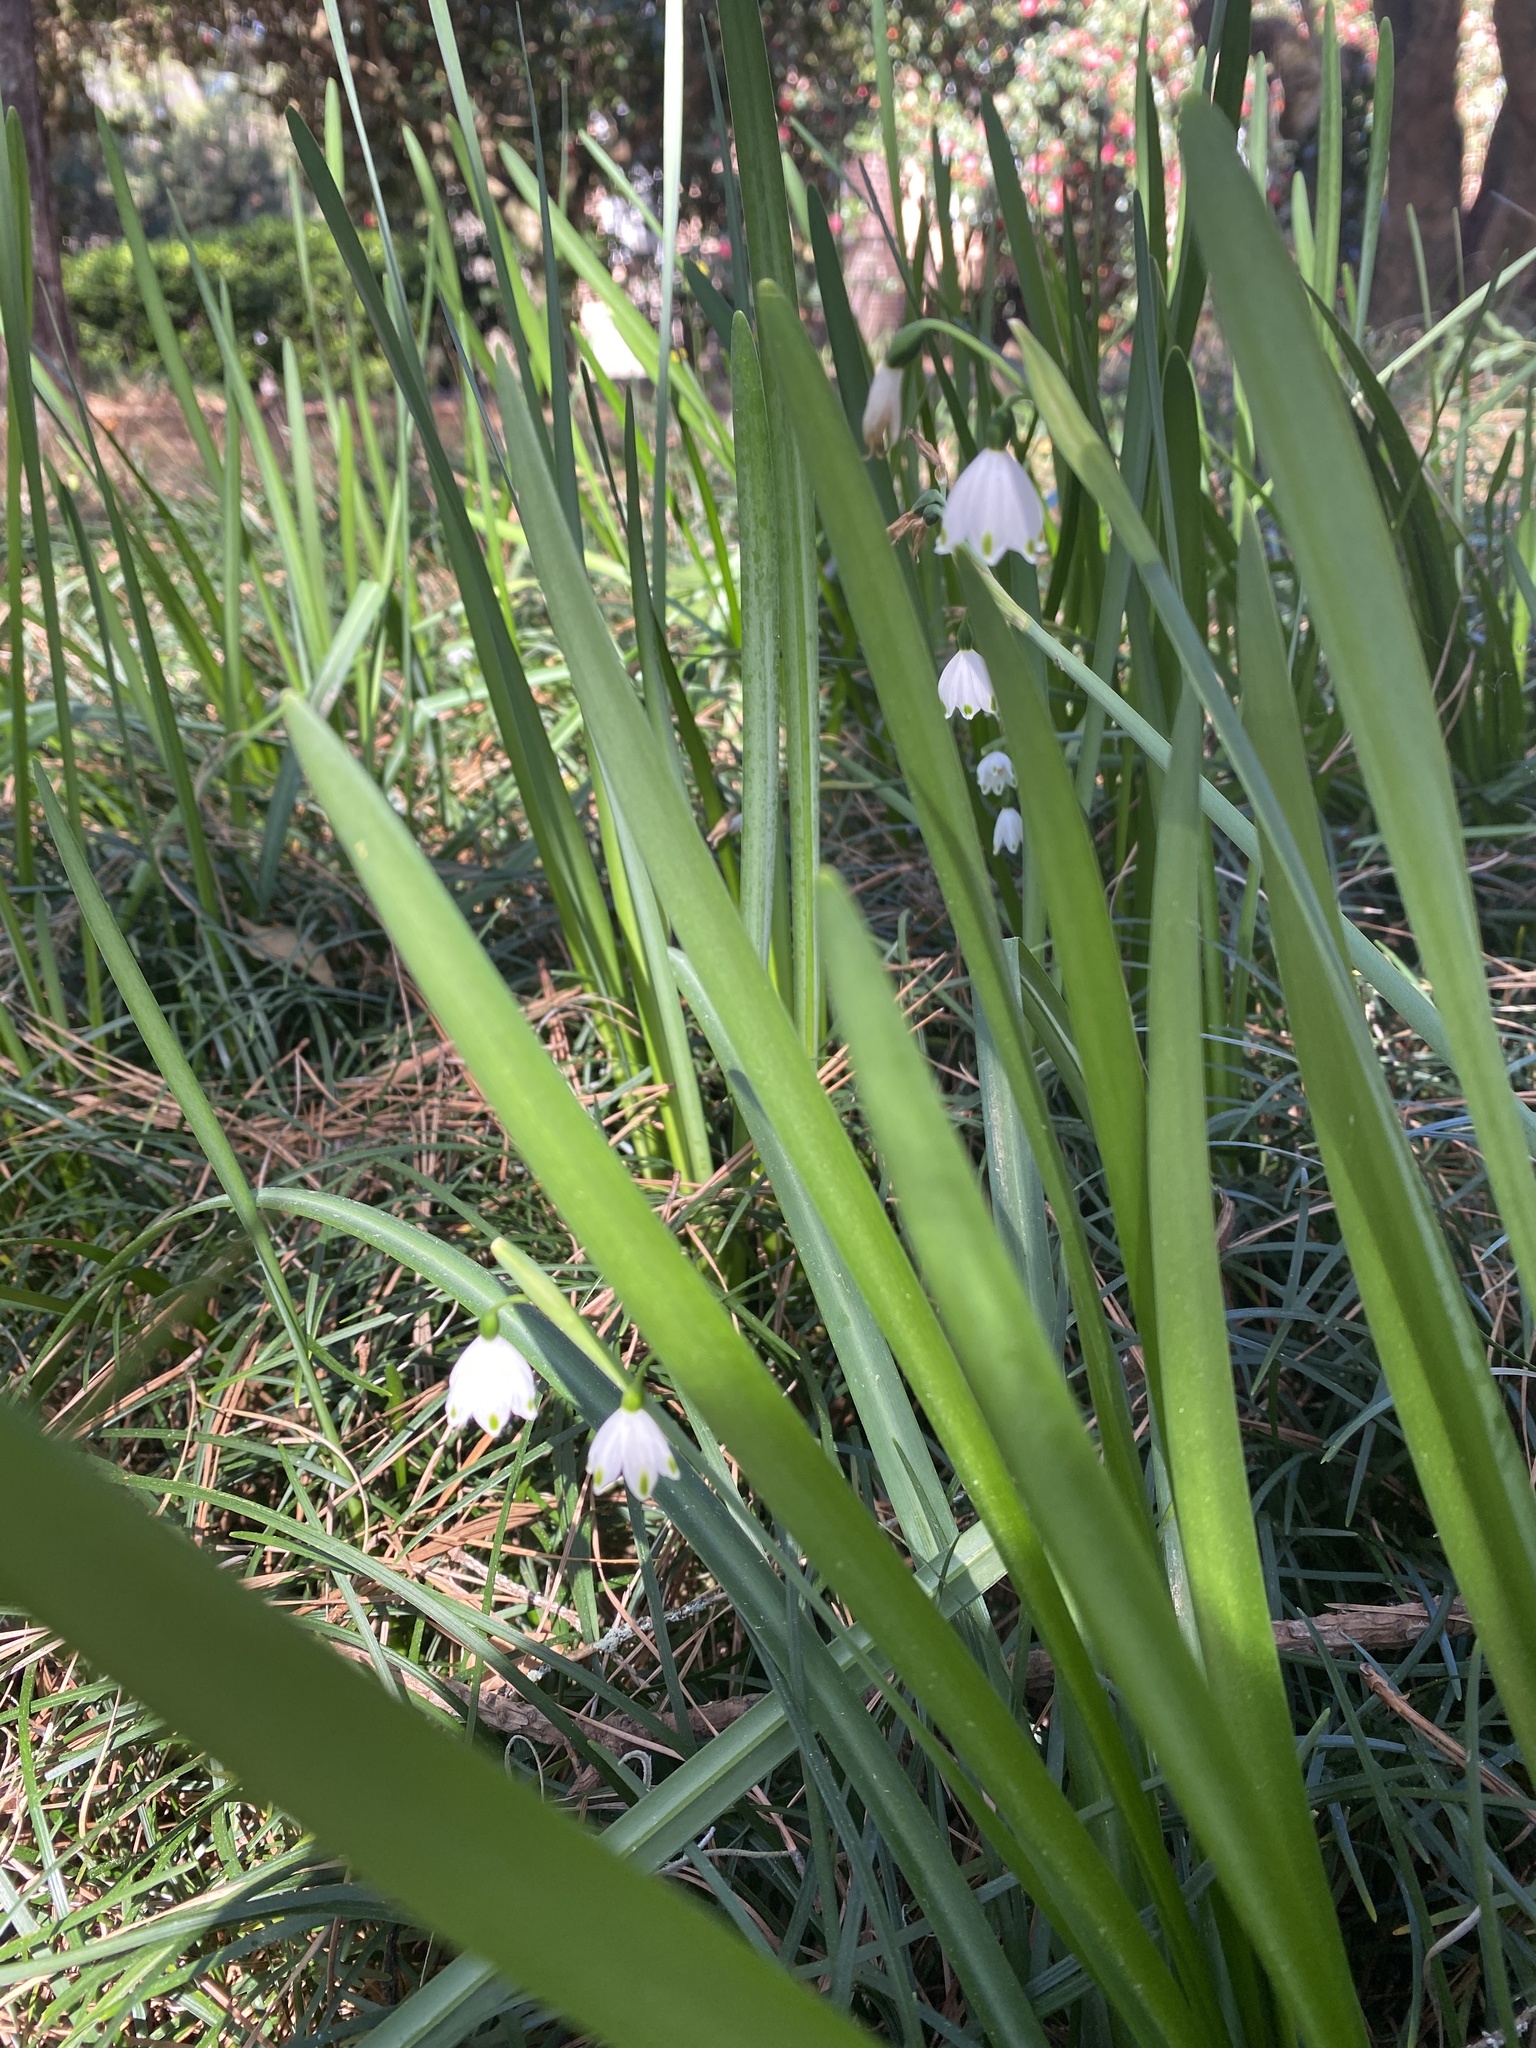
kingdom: Plantae
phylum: Tracheophyta
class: Liliopsida
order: Asparagales
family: Amaryllidaceae
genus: Leucojum
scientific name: Leucojum aestivum
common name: Summer snowflake
